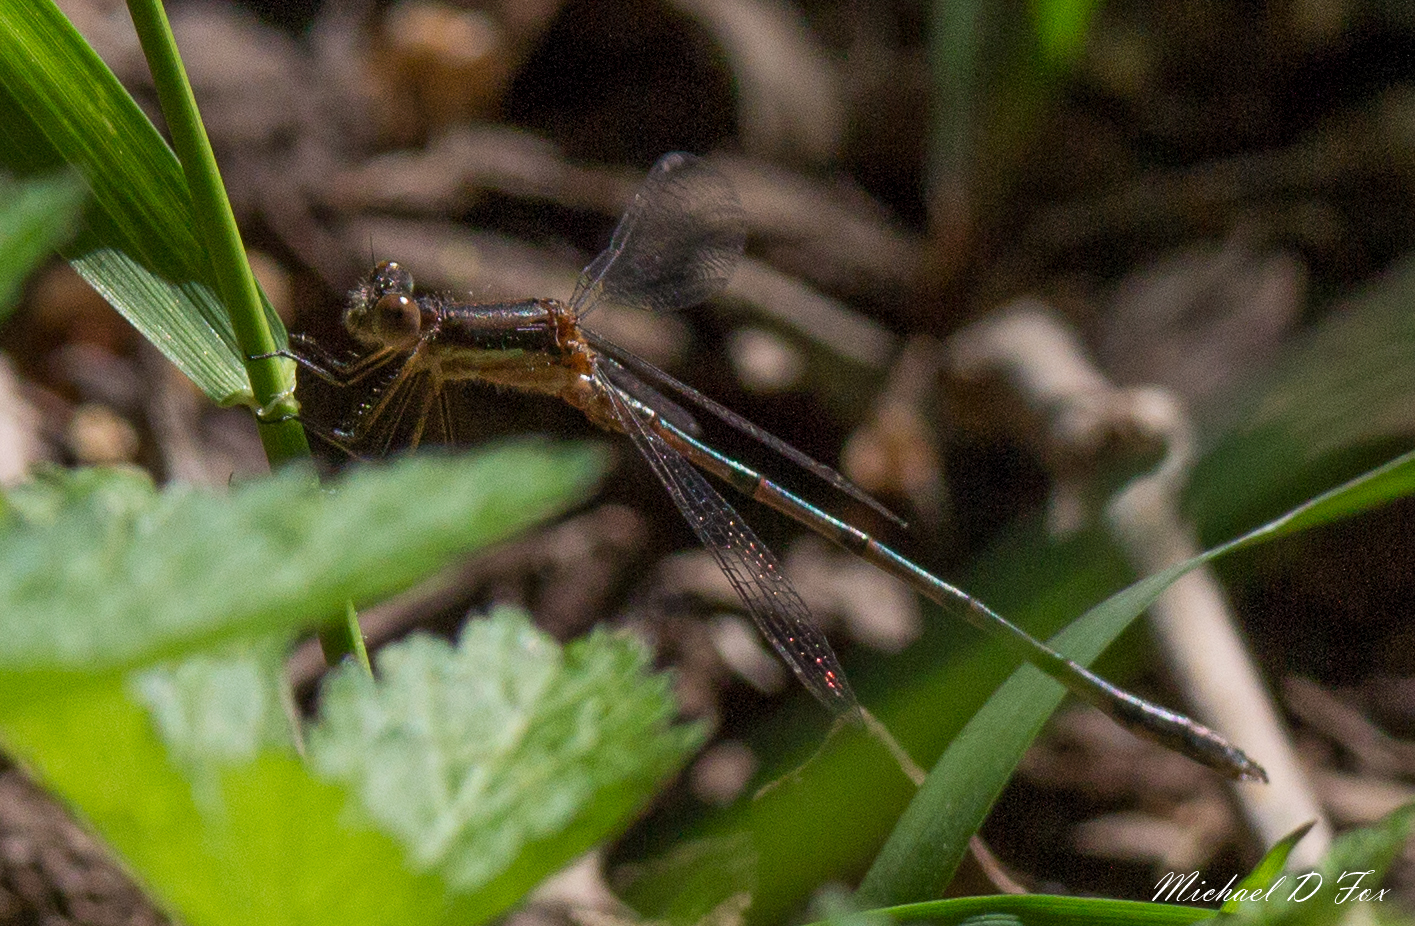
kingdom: Animalia
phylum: Arthropoda
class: Insecta
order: Odonata
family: Lestidae
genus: Lestes
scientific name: Lestes australis
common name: Southern spreadwing
